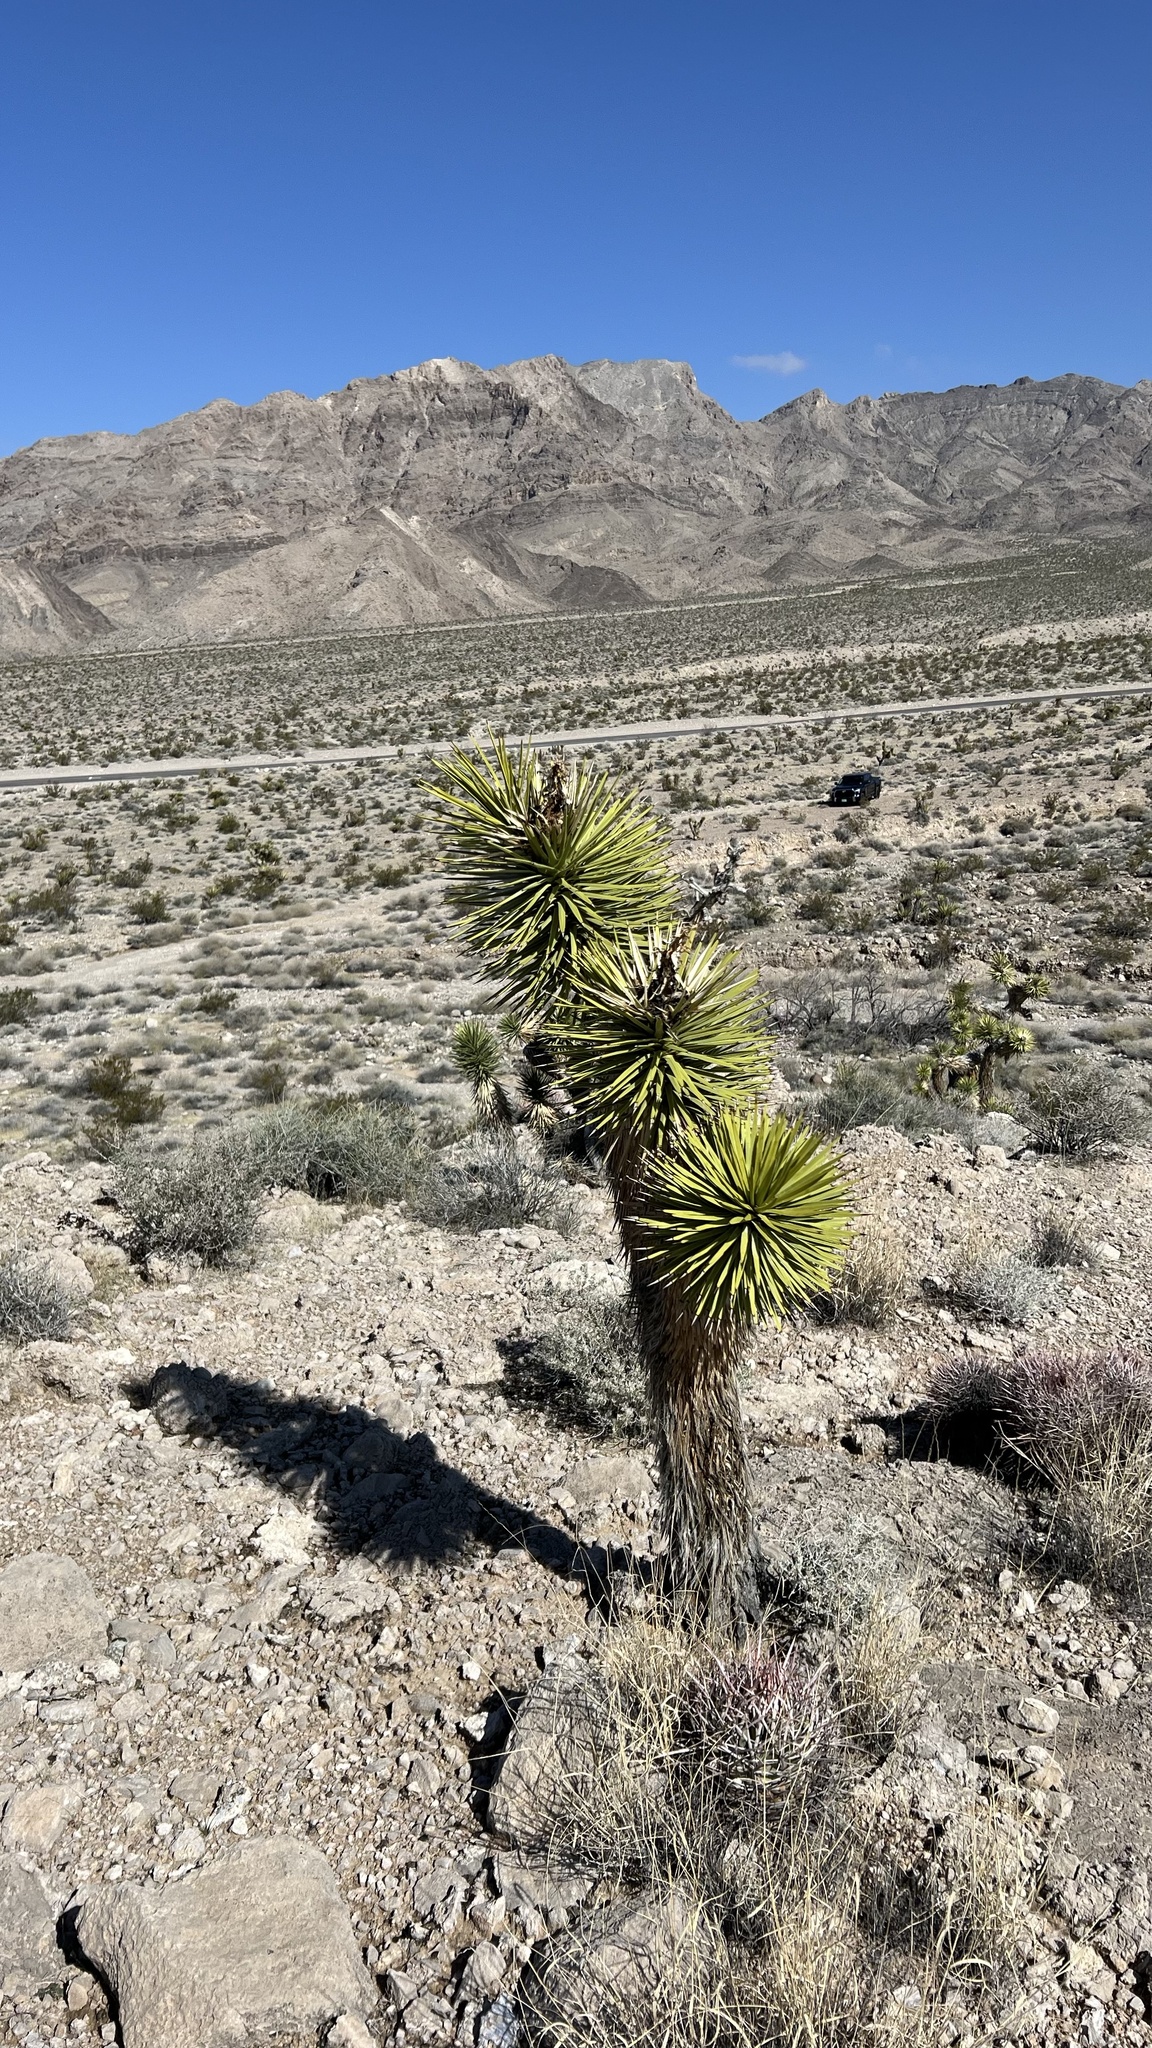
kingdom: Plantae
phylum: Tracheophyta
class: Liliopsida
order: Asparagales
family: Asparagaceae
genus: Yucca
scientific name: Yucca brevifolia
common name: Joshua tree
